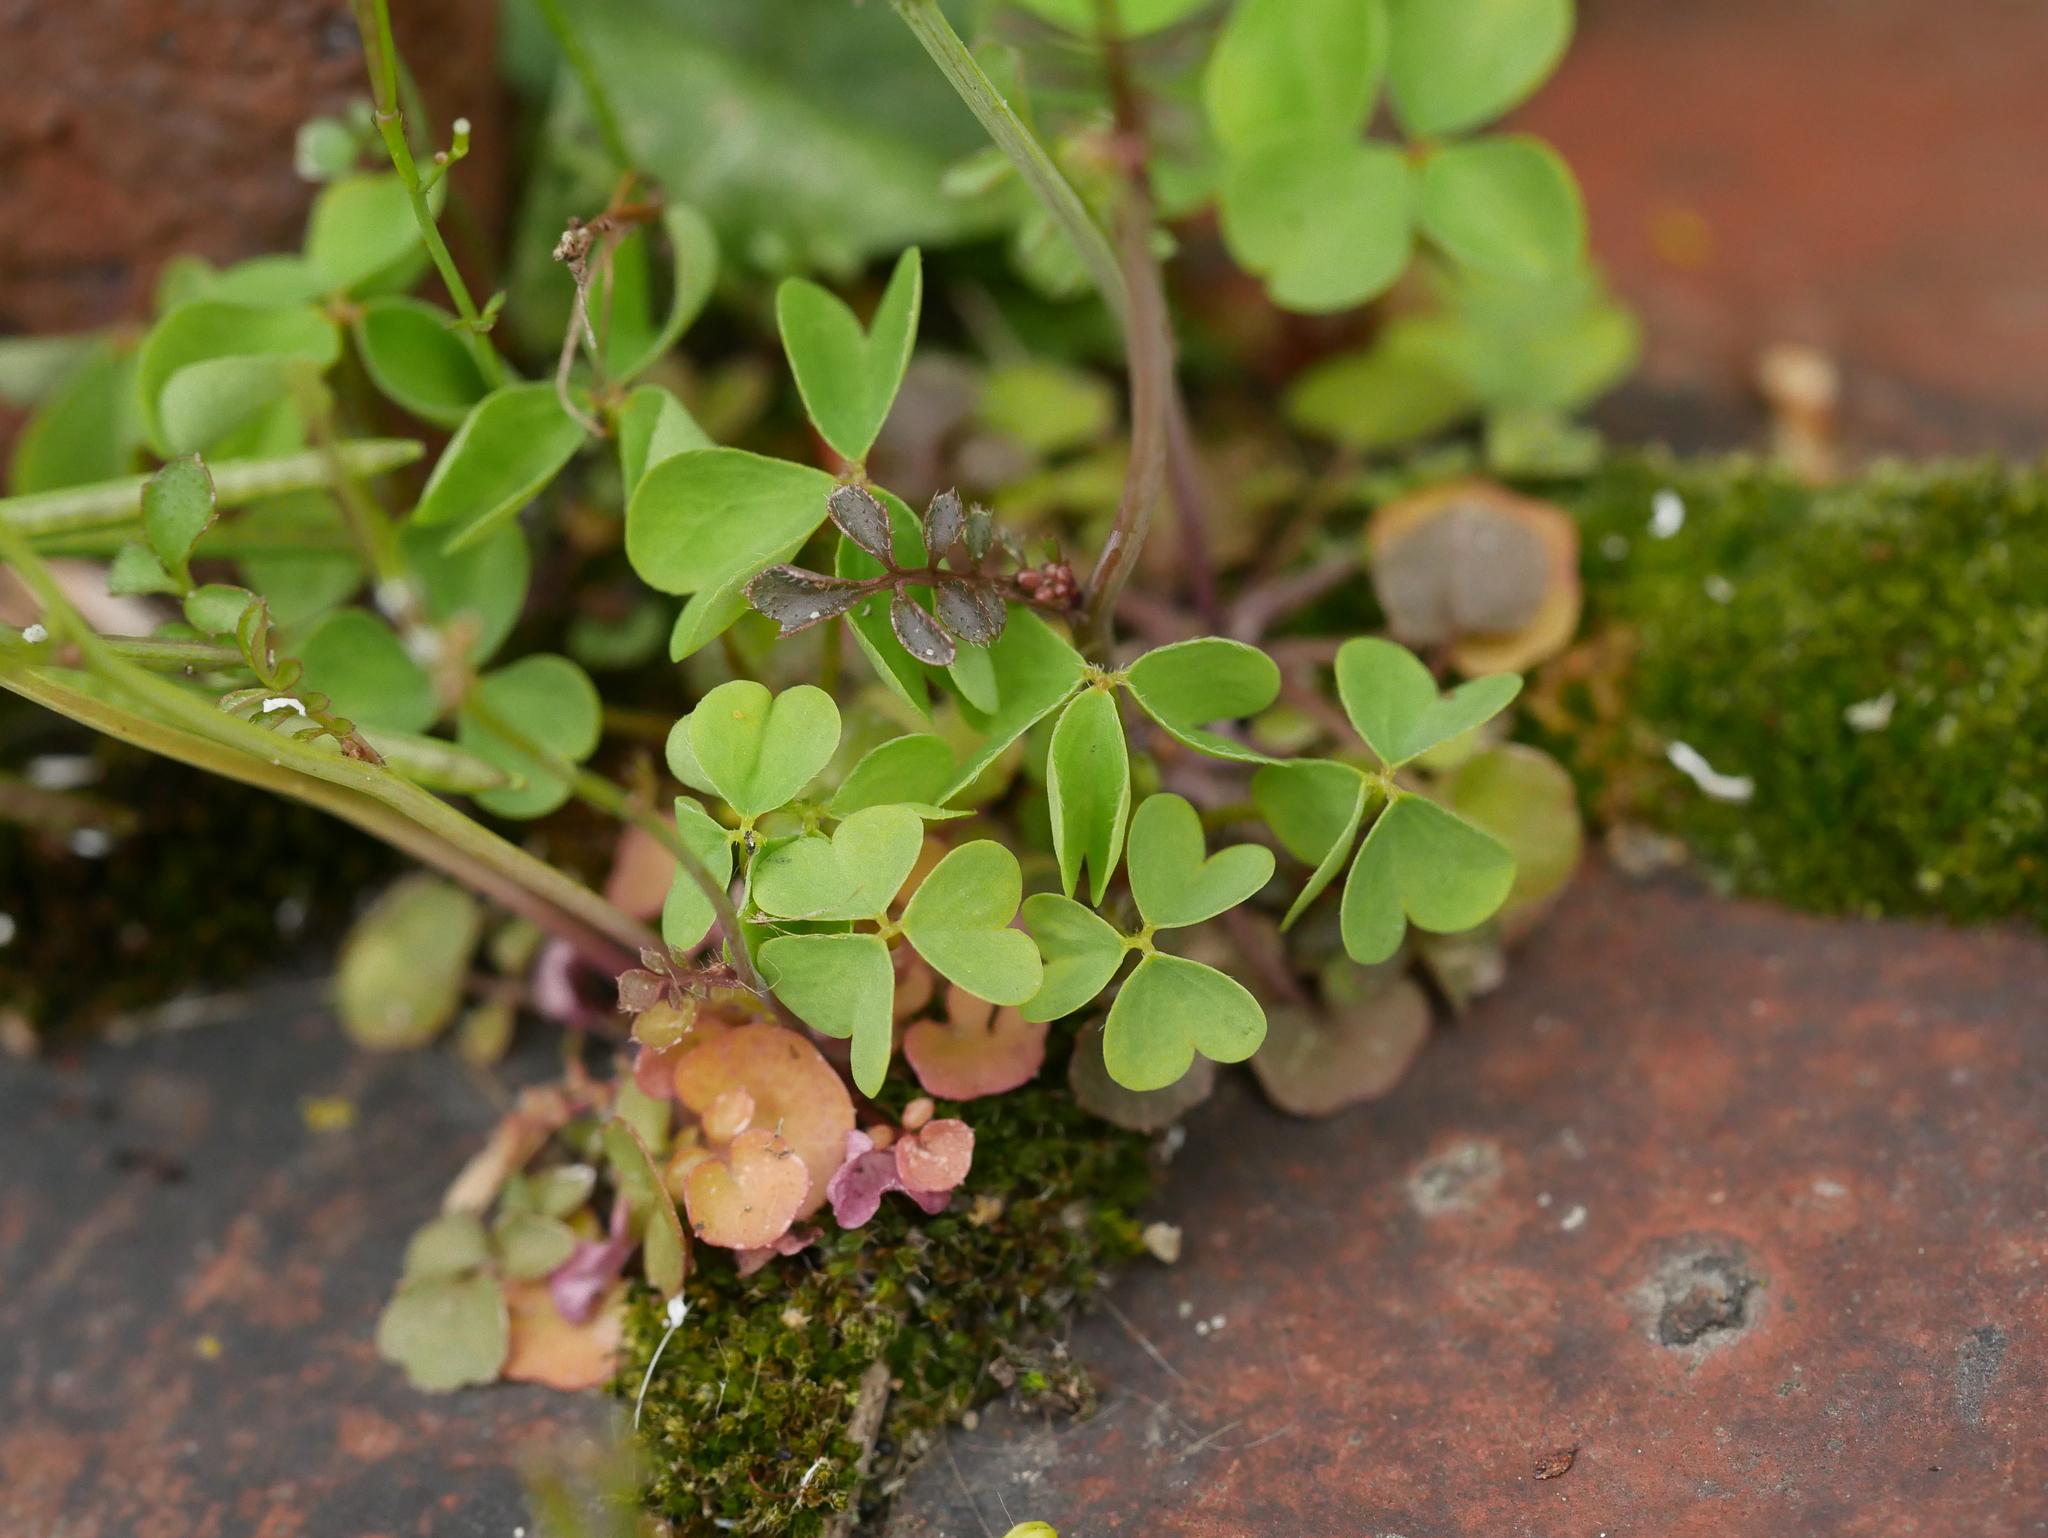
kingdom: Plantae
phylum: Tracheophyta
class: Magnoliopsida
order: Oxalidales
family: Oxalidaceae
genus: Oxalis
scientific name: Oxalis corniculata
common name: Procumbent yellow-sorrel
